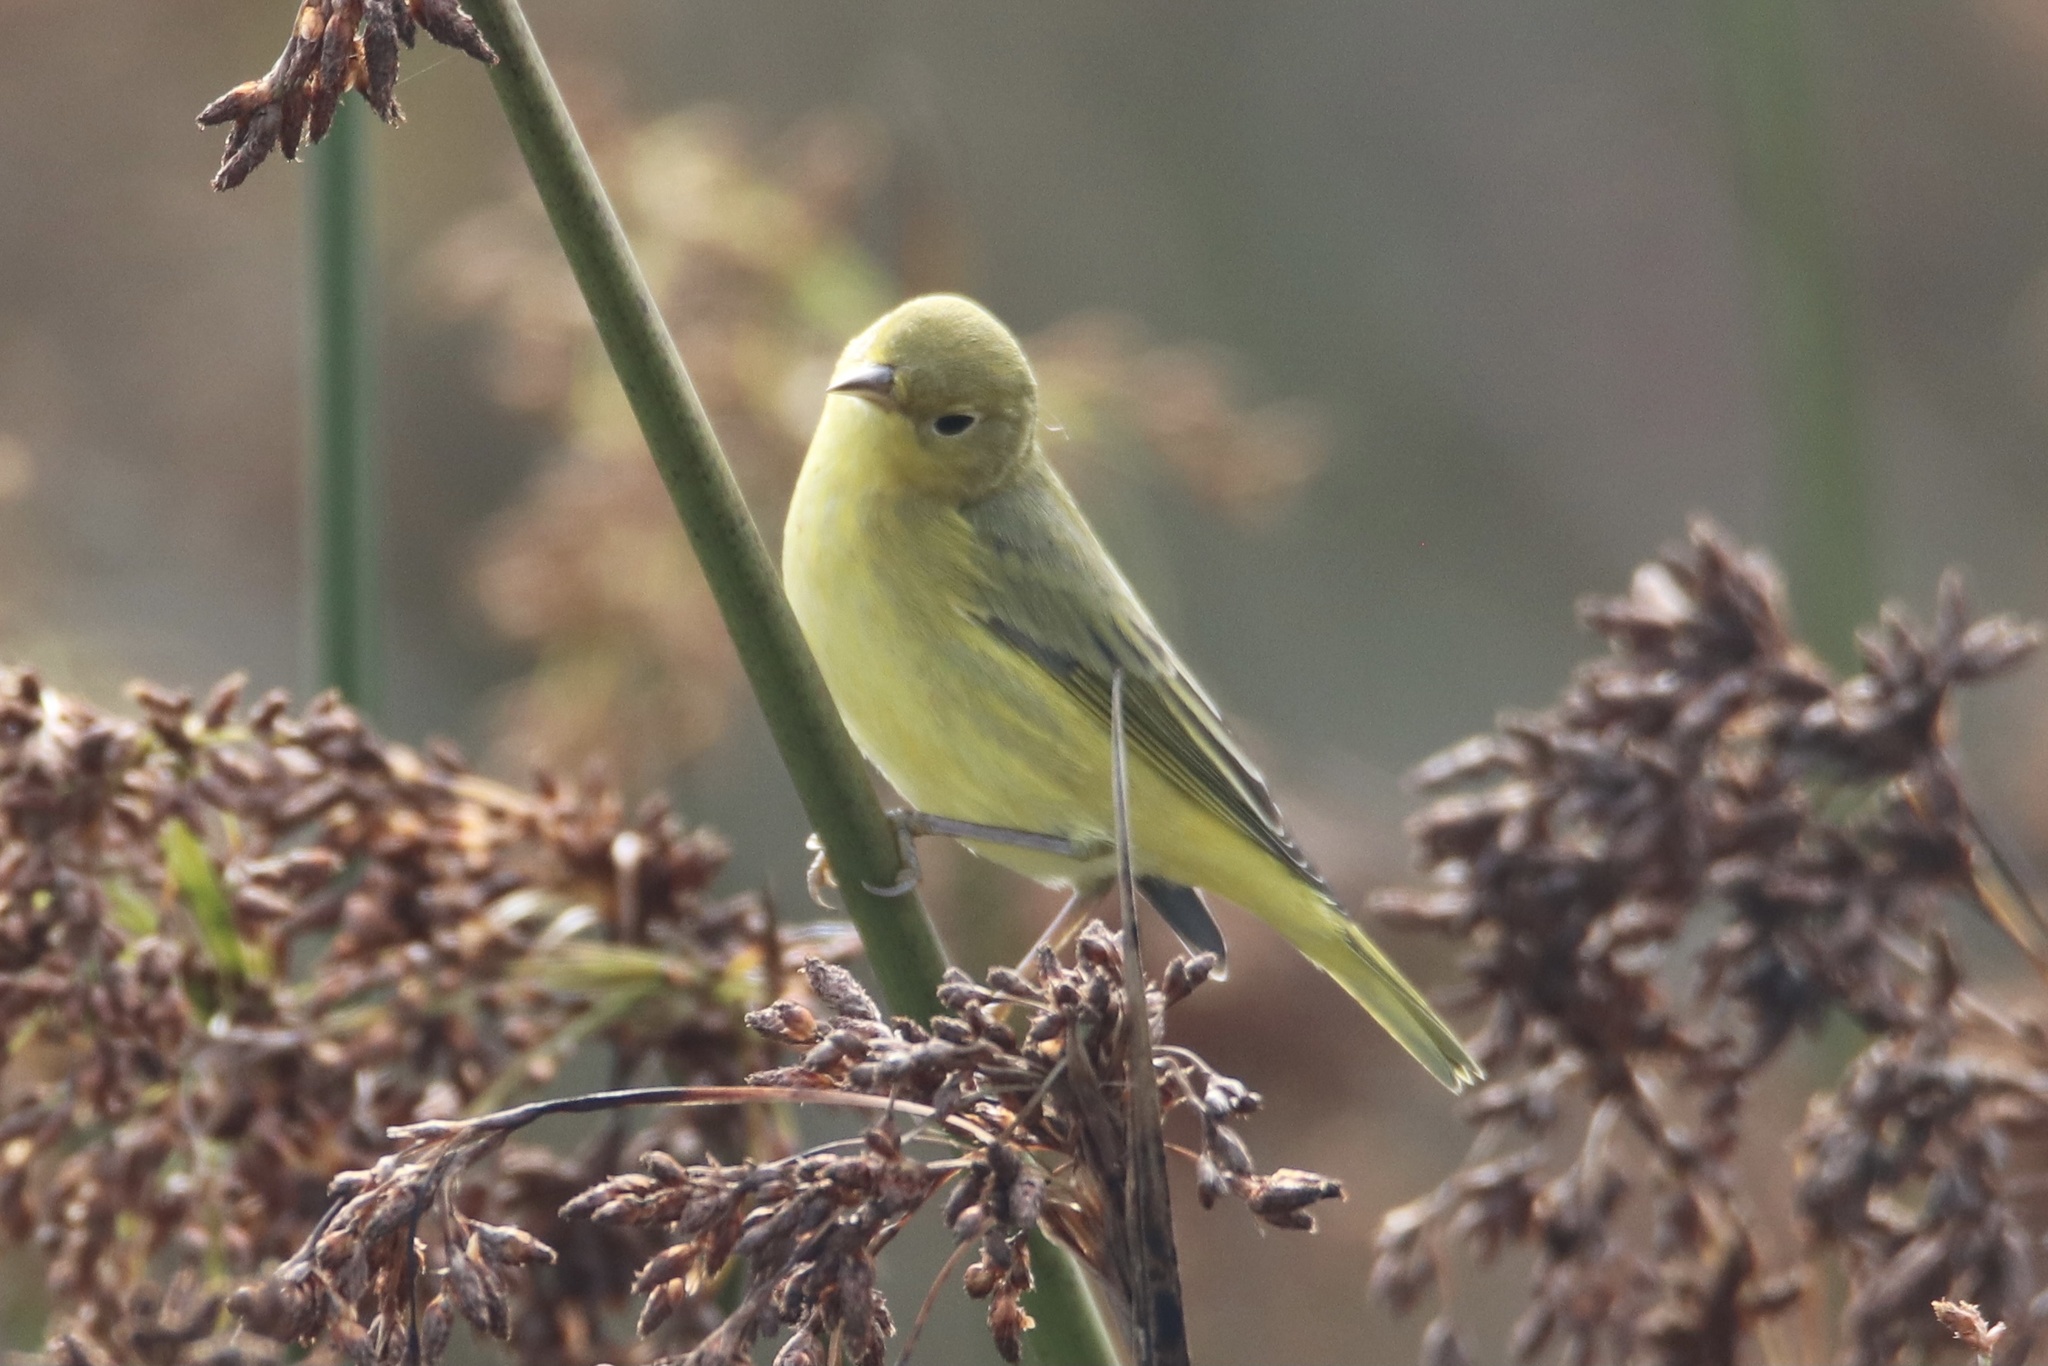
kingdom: Animalia
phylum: Chordata
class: Aves
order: Passeriformes
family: Parulidae
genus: Setophaga
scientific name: Setophaga petechia
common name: Yellow warbler
